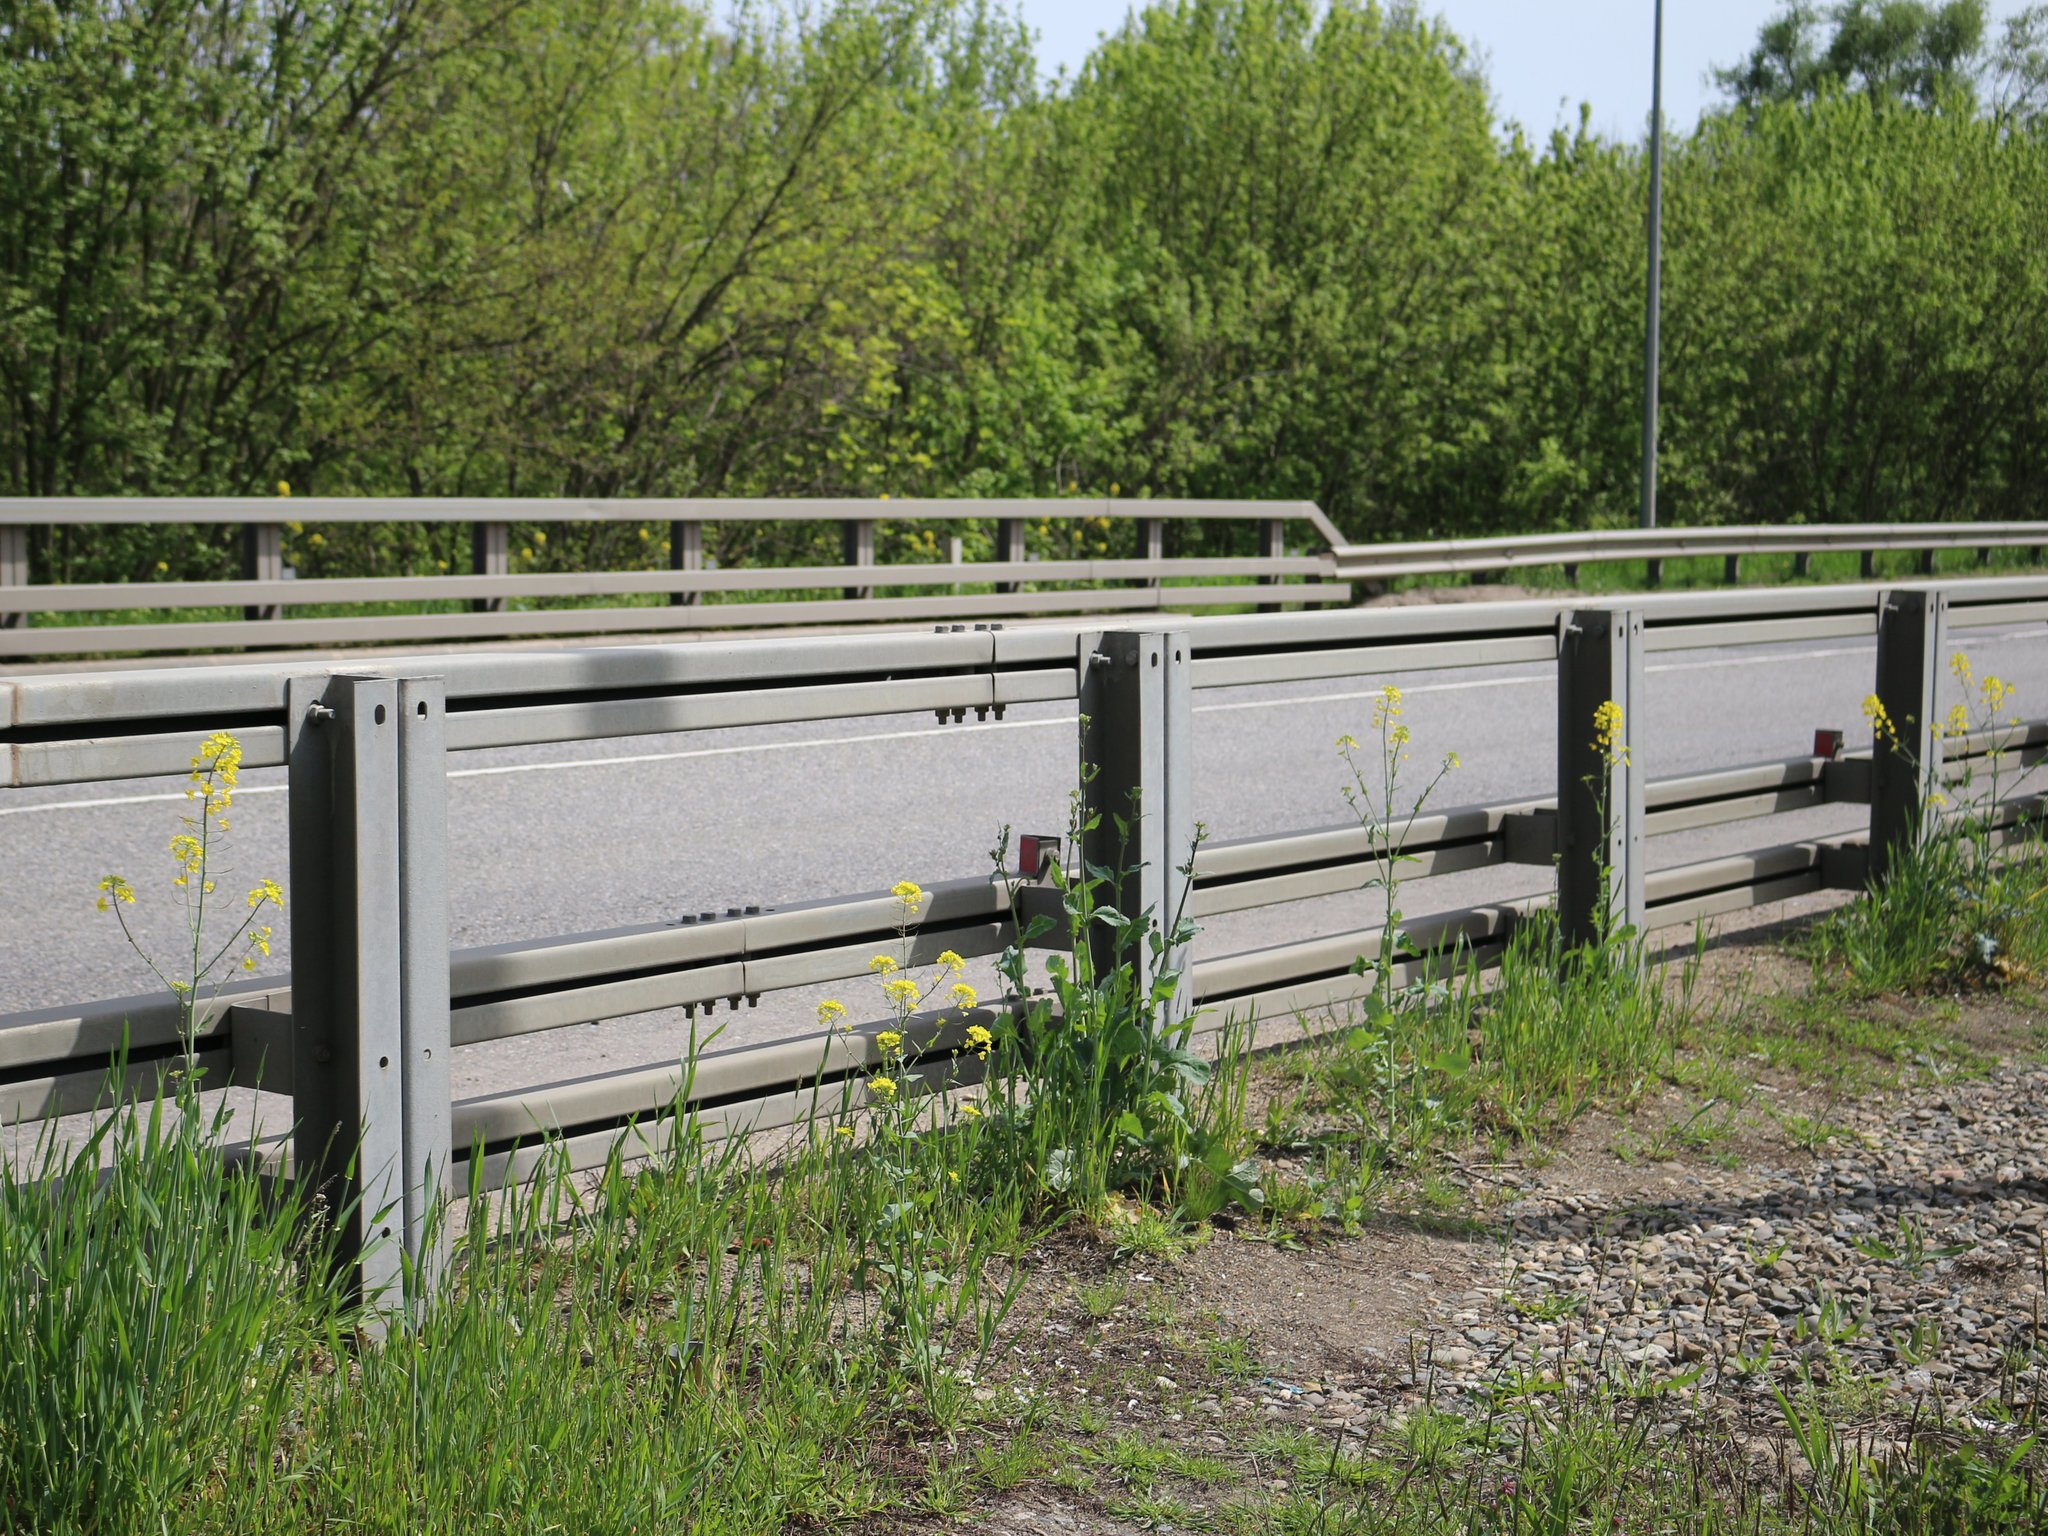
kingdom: Plantae
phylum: Tracheophyta
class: Magnoliopsida
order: Brassicales
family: Brassicaceae
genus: Brassica
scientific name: Brassica napus
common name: Rape
